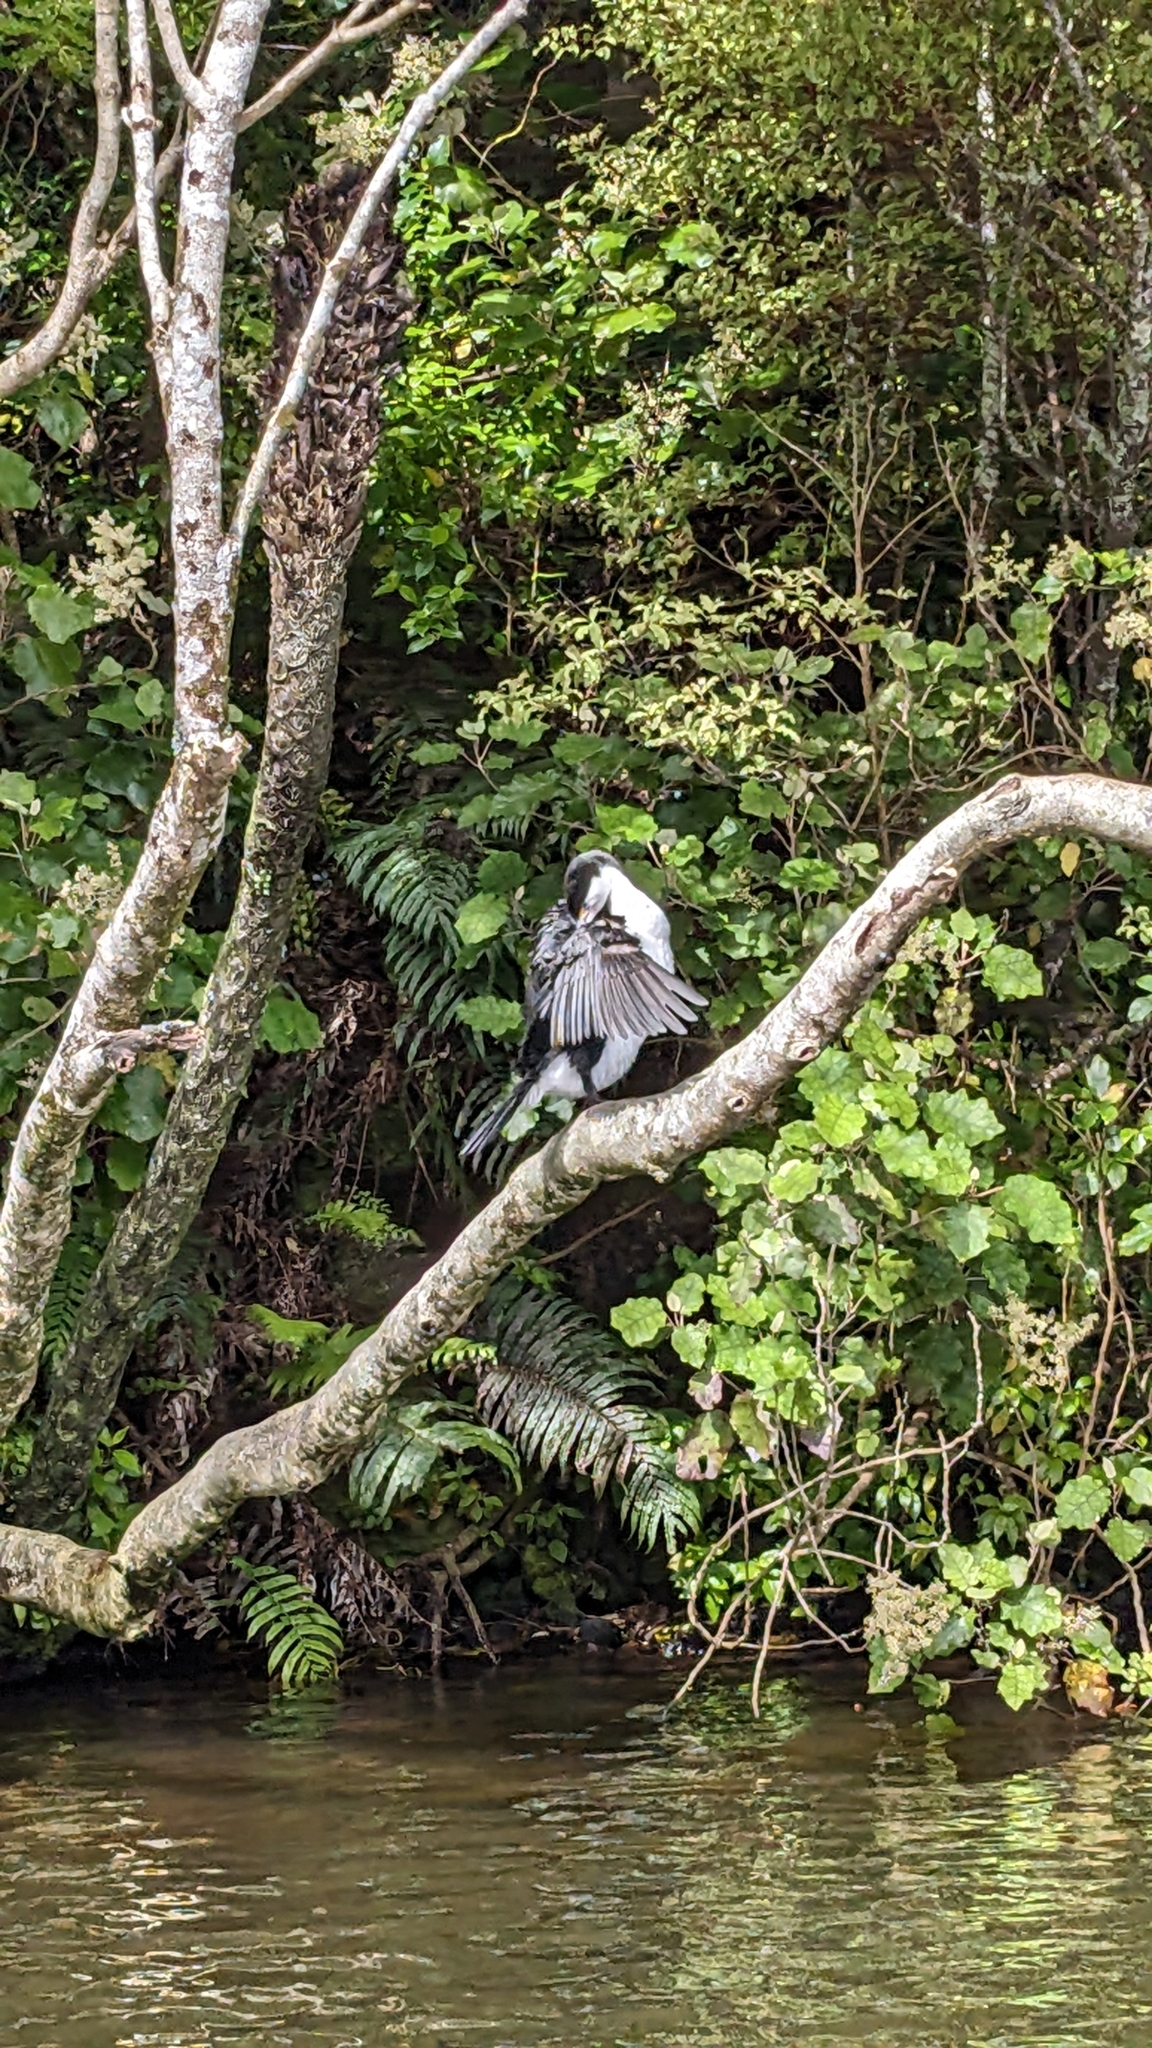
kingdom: Animalia
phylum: Chordata
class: Aves
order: Suliformes
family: Phalacrocoracidae
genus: Phalacrocorax
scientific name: Phalacrocorax varius
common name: Pied cormorant
